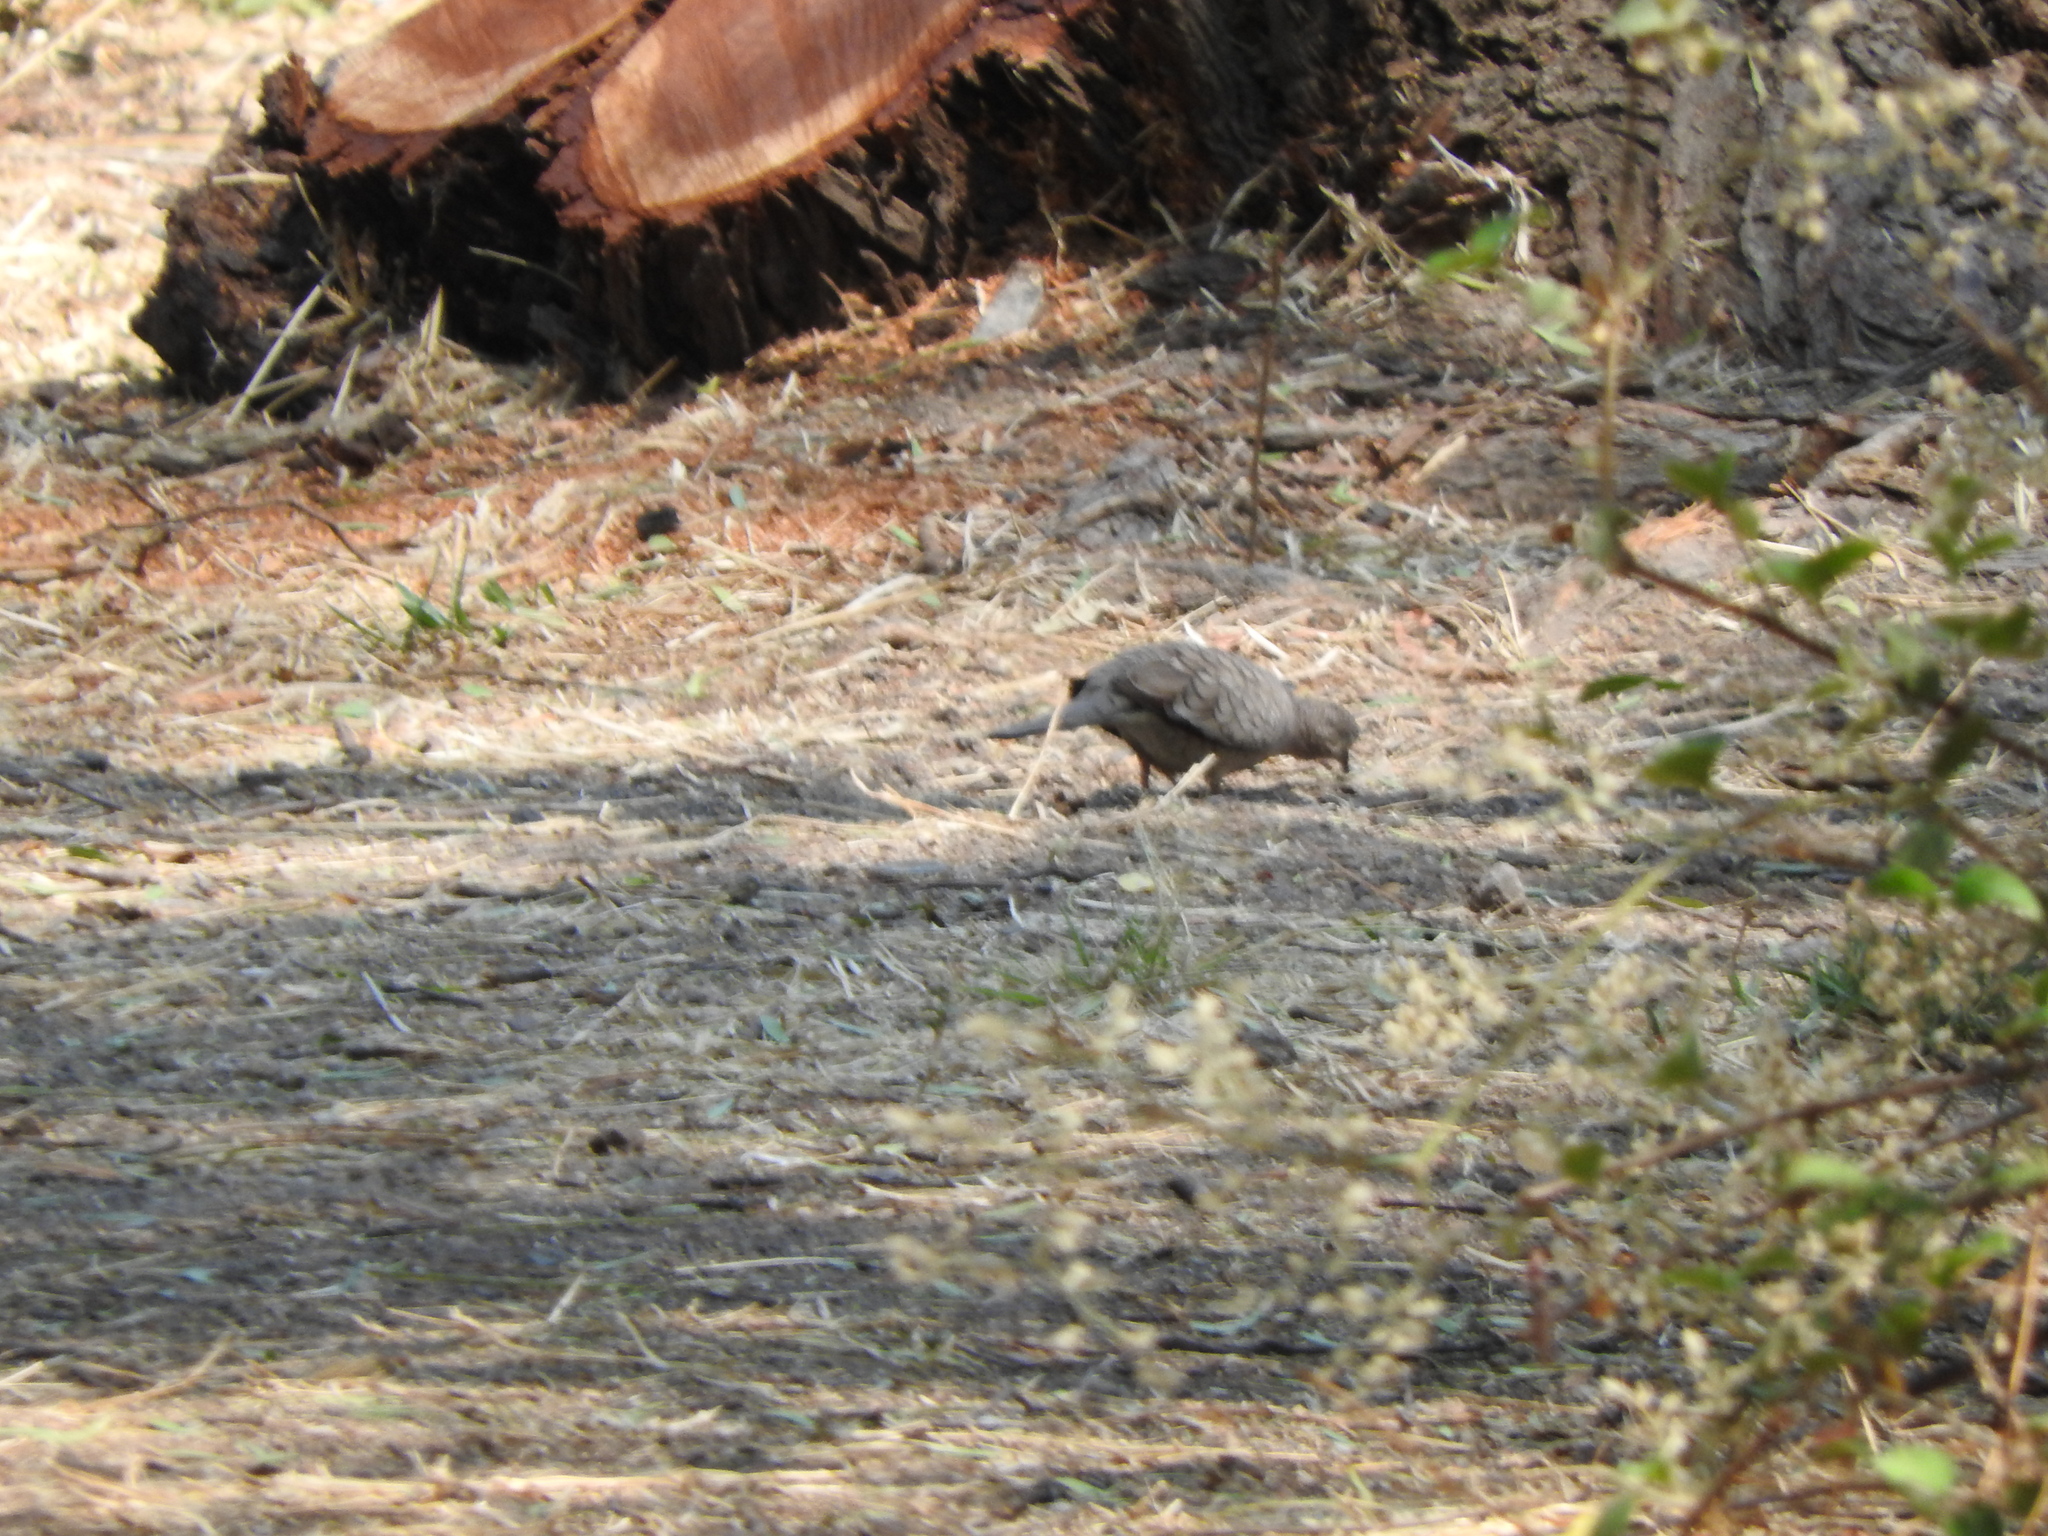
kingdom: Animalia
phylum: Chordata
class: Aves
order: Columbiformes
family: Columbidae
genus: Columbina
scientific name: Columbina inca
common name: Inca dove
